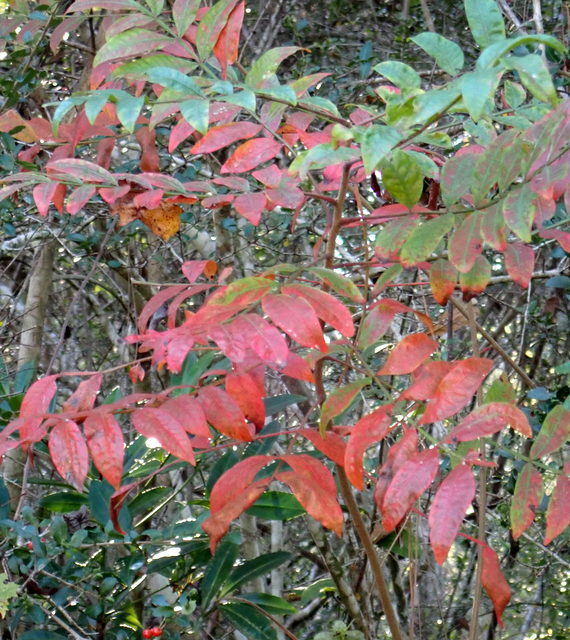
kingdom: Plantae
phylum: Tracheophyta
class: Magnoliopsida
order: Sapindales
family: Anacardiaceae
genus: Rhus
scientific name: Rhus copallina
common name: Shining sumac
